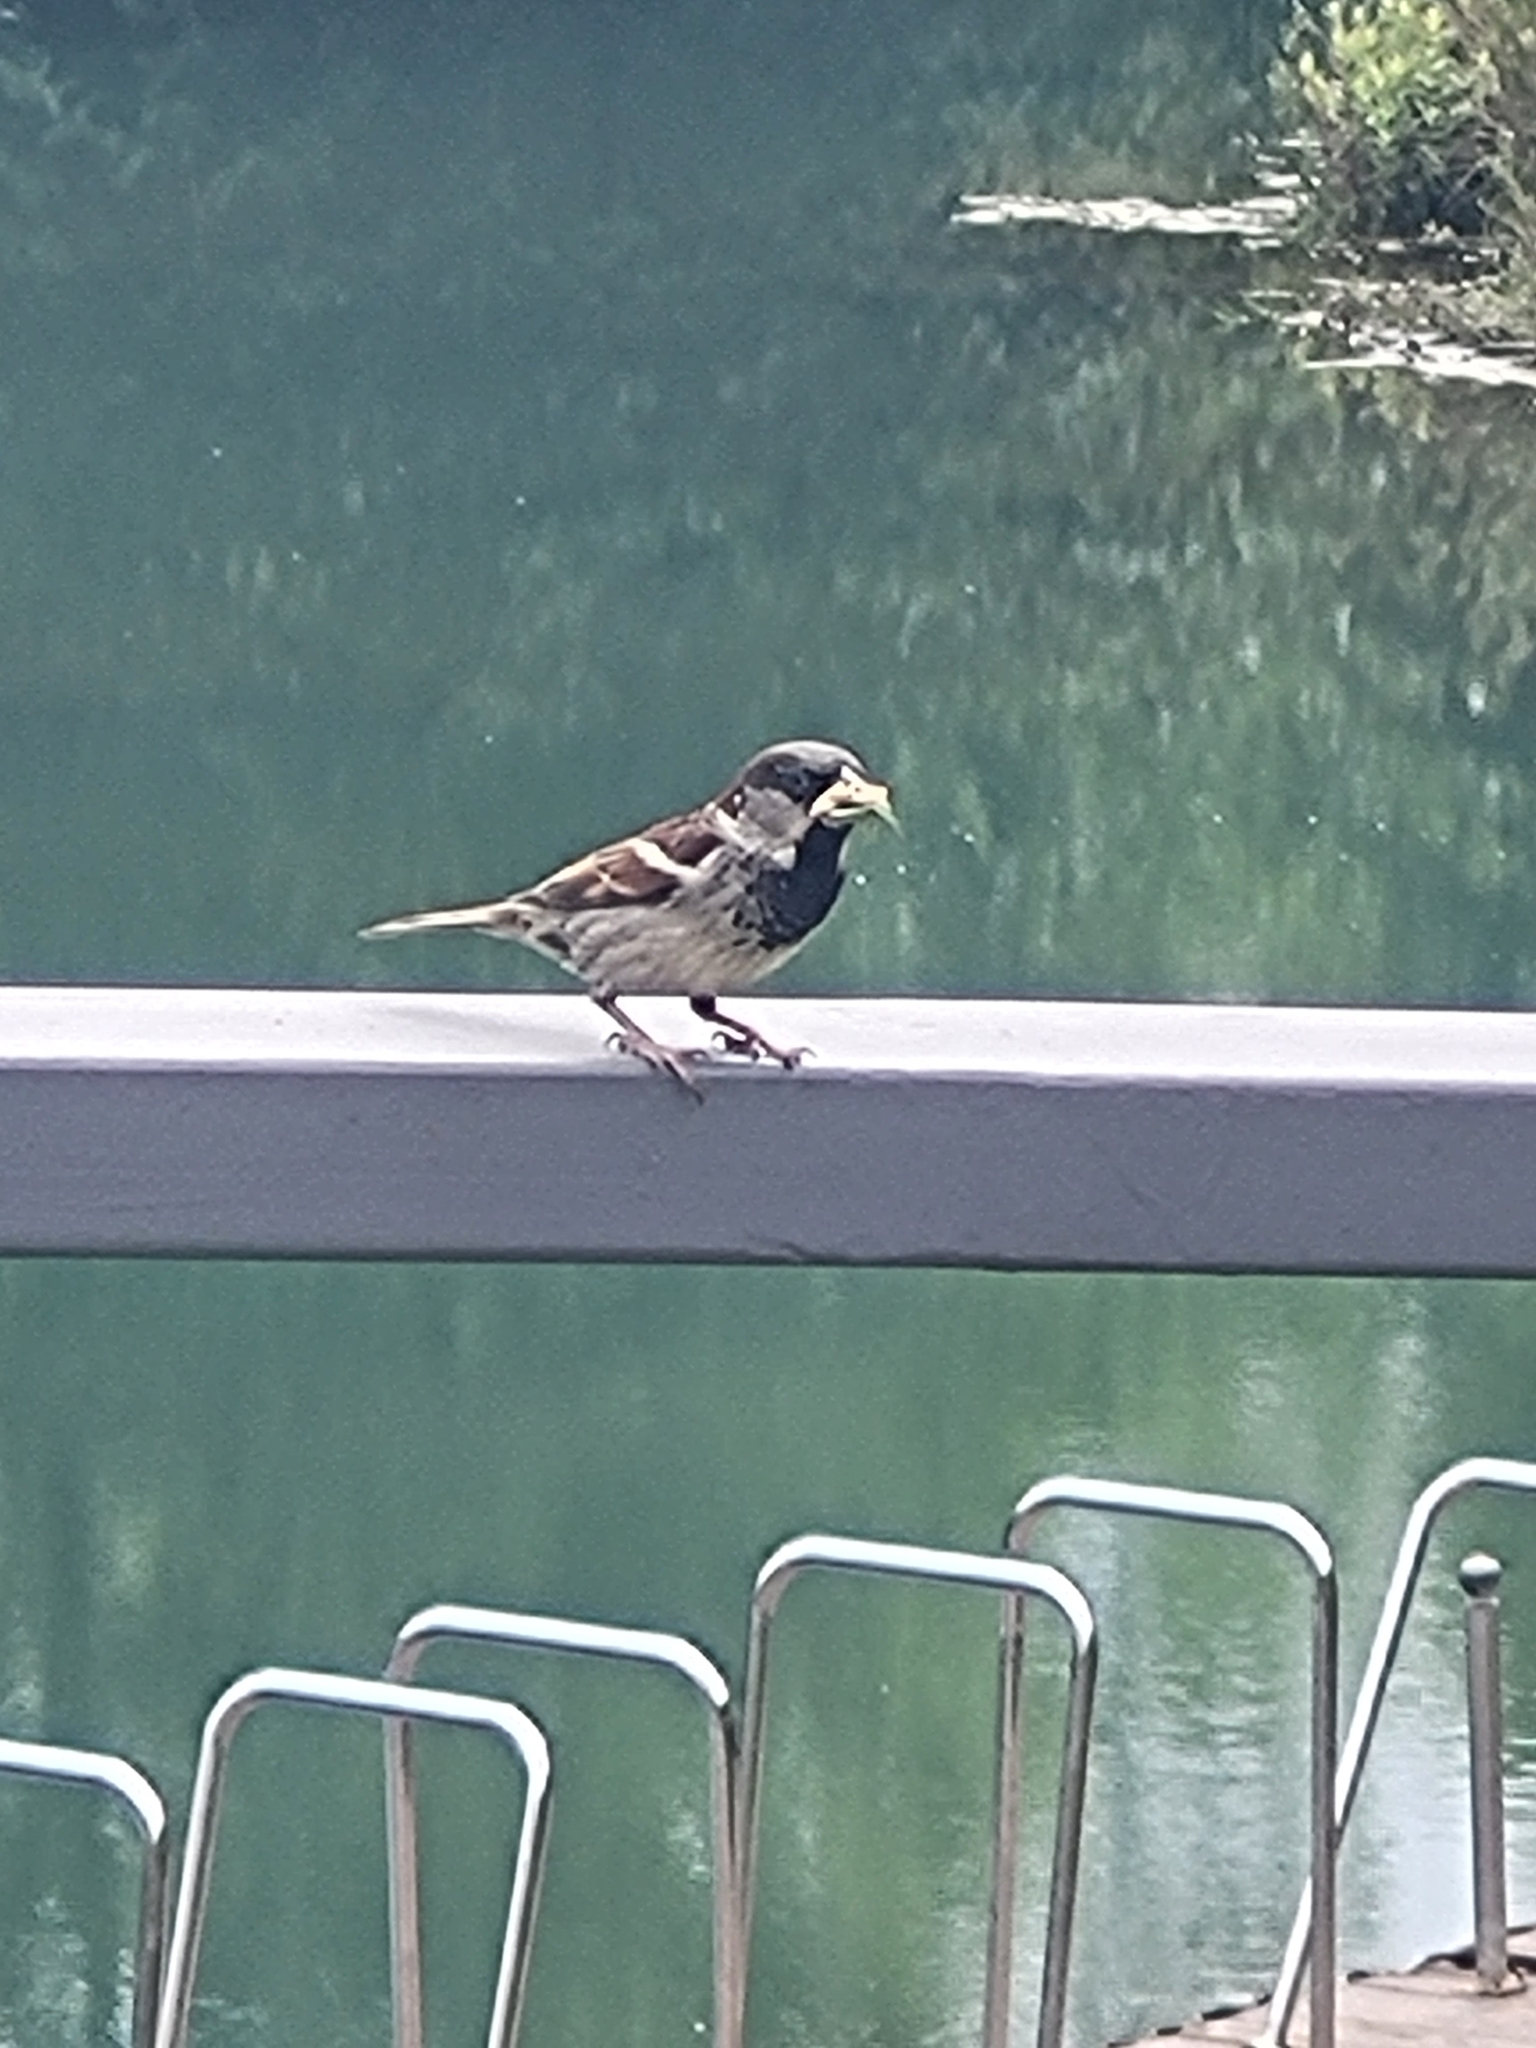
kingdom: Animalia
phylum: Chordata
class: Aves
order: Passeriformes
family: Passeridae
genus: Passer
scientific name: Passer domesticus
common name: House sparrow
